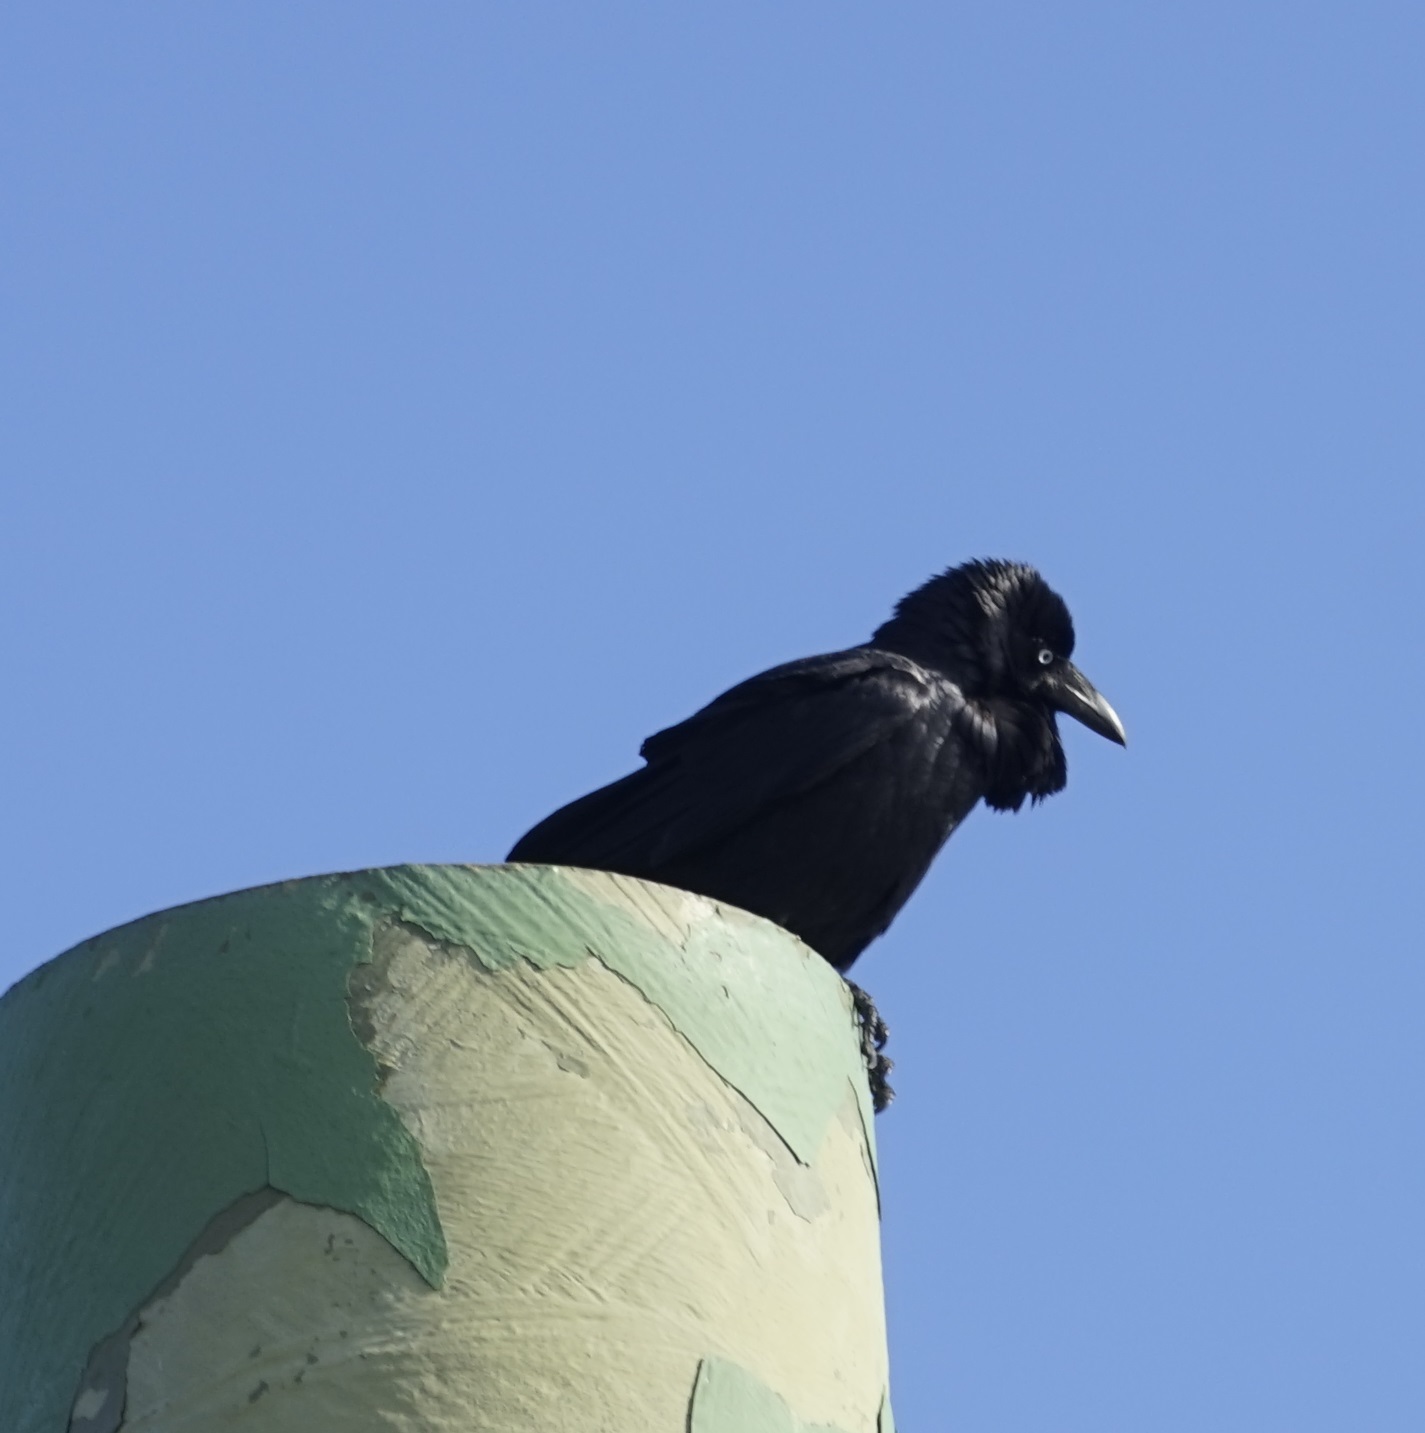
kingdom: Animalia
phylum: Chordata
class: Aves
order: Passeriformes
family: Corvidae
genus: Corvus
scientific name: Corvus coronoides
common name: Australian raven
